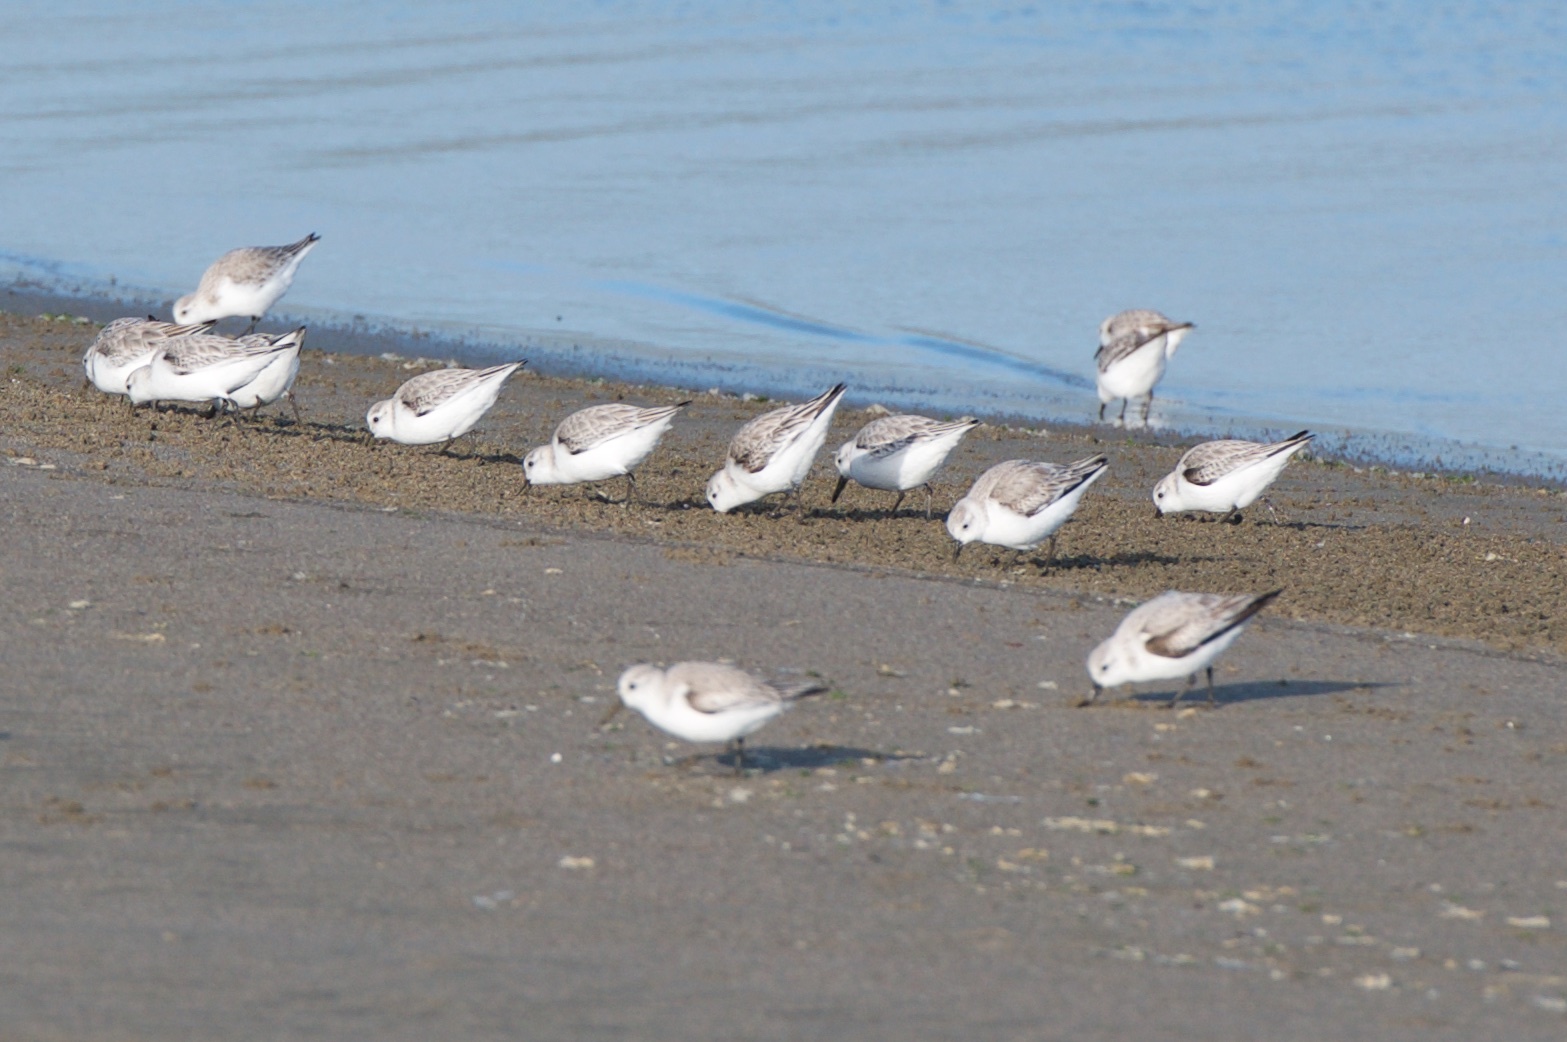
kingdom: Animalia
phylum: Chordata
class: Aves
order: Charadriiformes
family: Scolopacidae
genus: Calidris
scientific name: Calidris alba
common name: Sanderling
